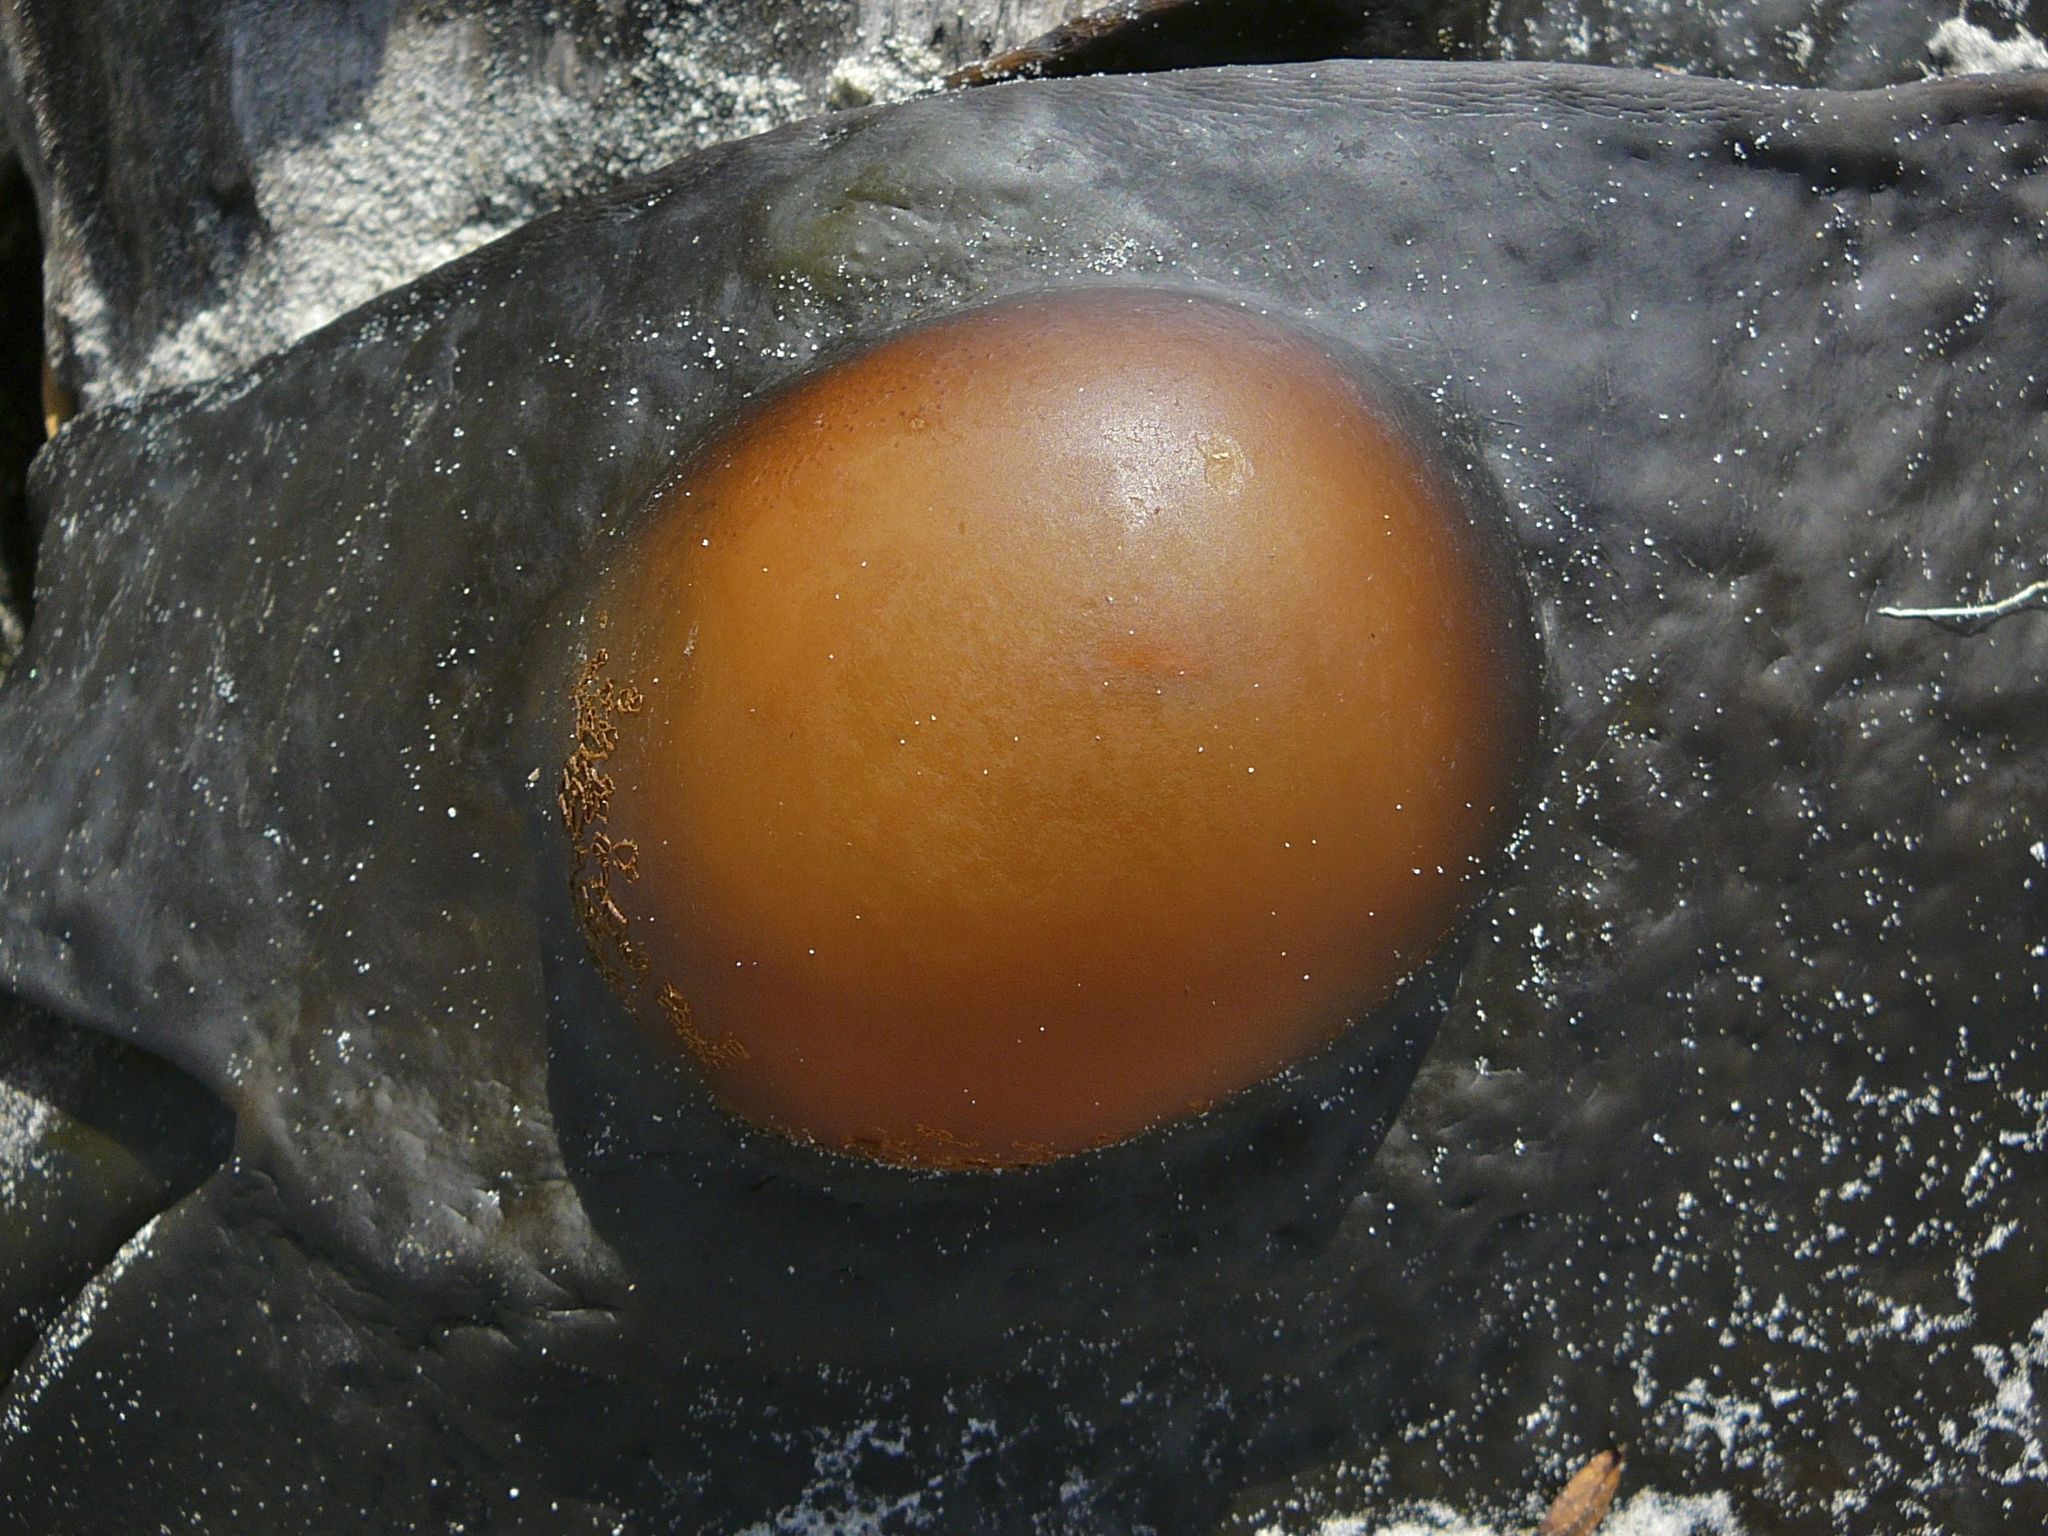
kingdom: Chromista
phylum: Ochrophyta
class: Phaeophyceae
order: Fucales
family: Durvillaeaceae
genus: Durvillaea
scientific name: Durvillaea antarctica
